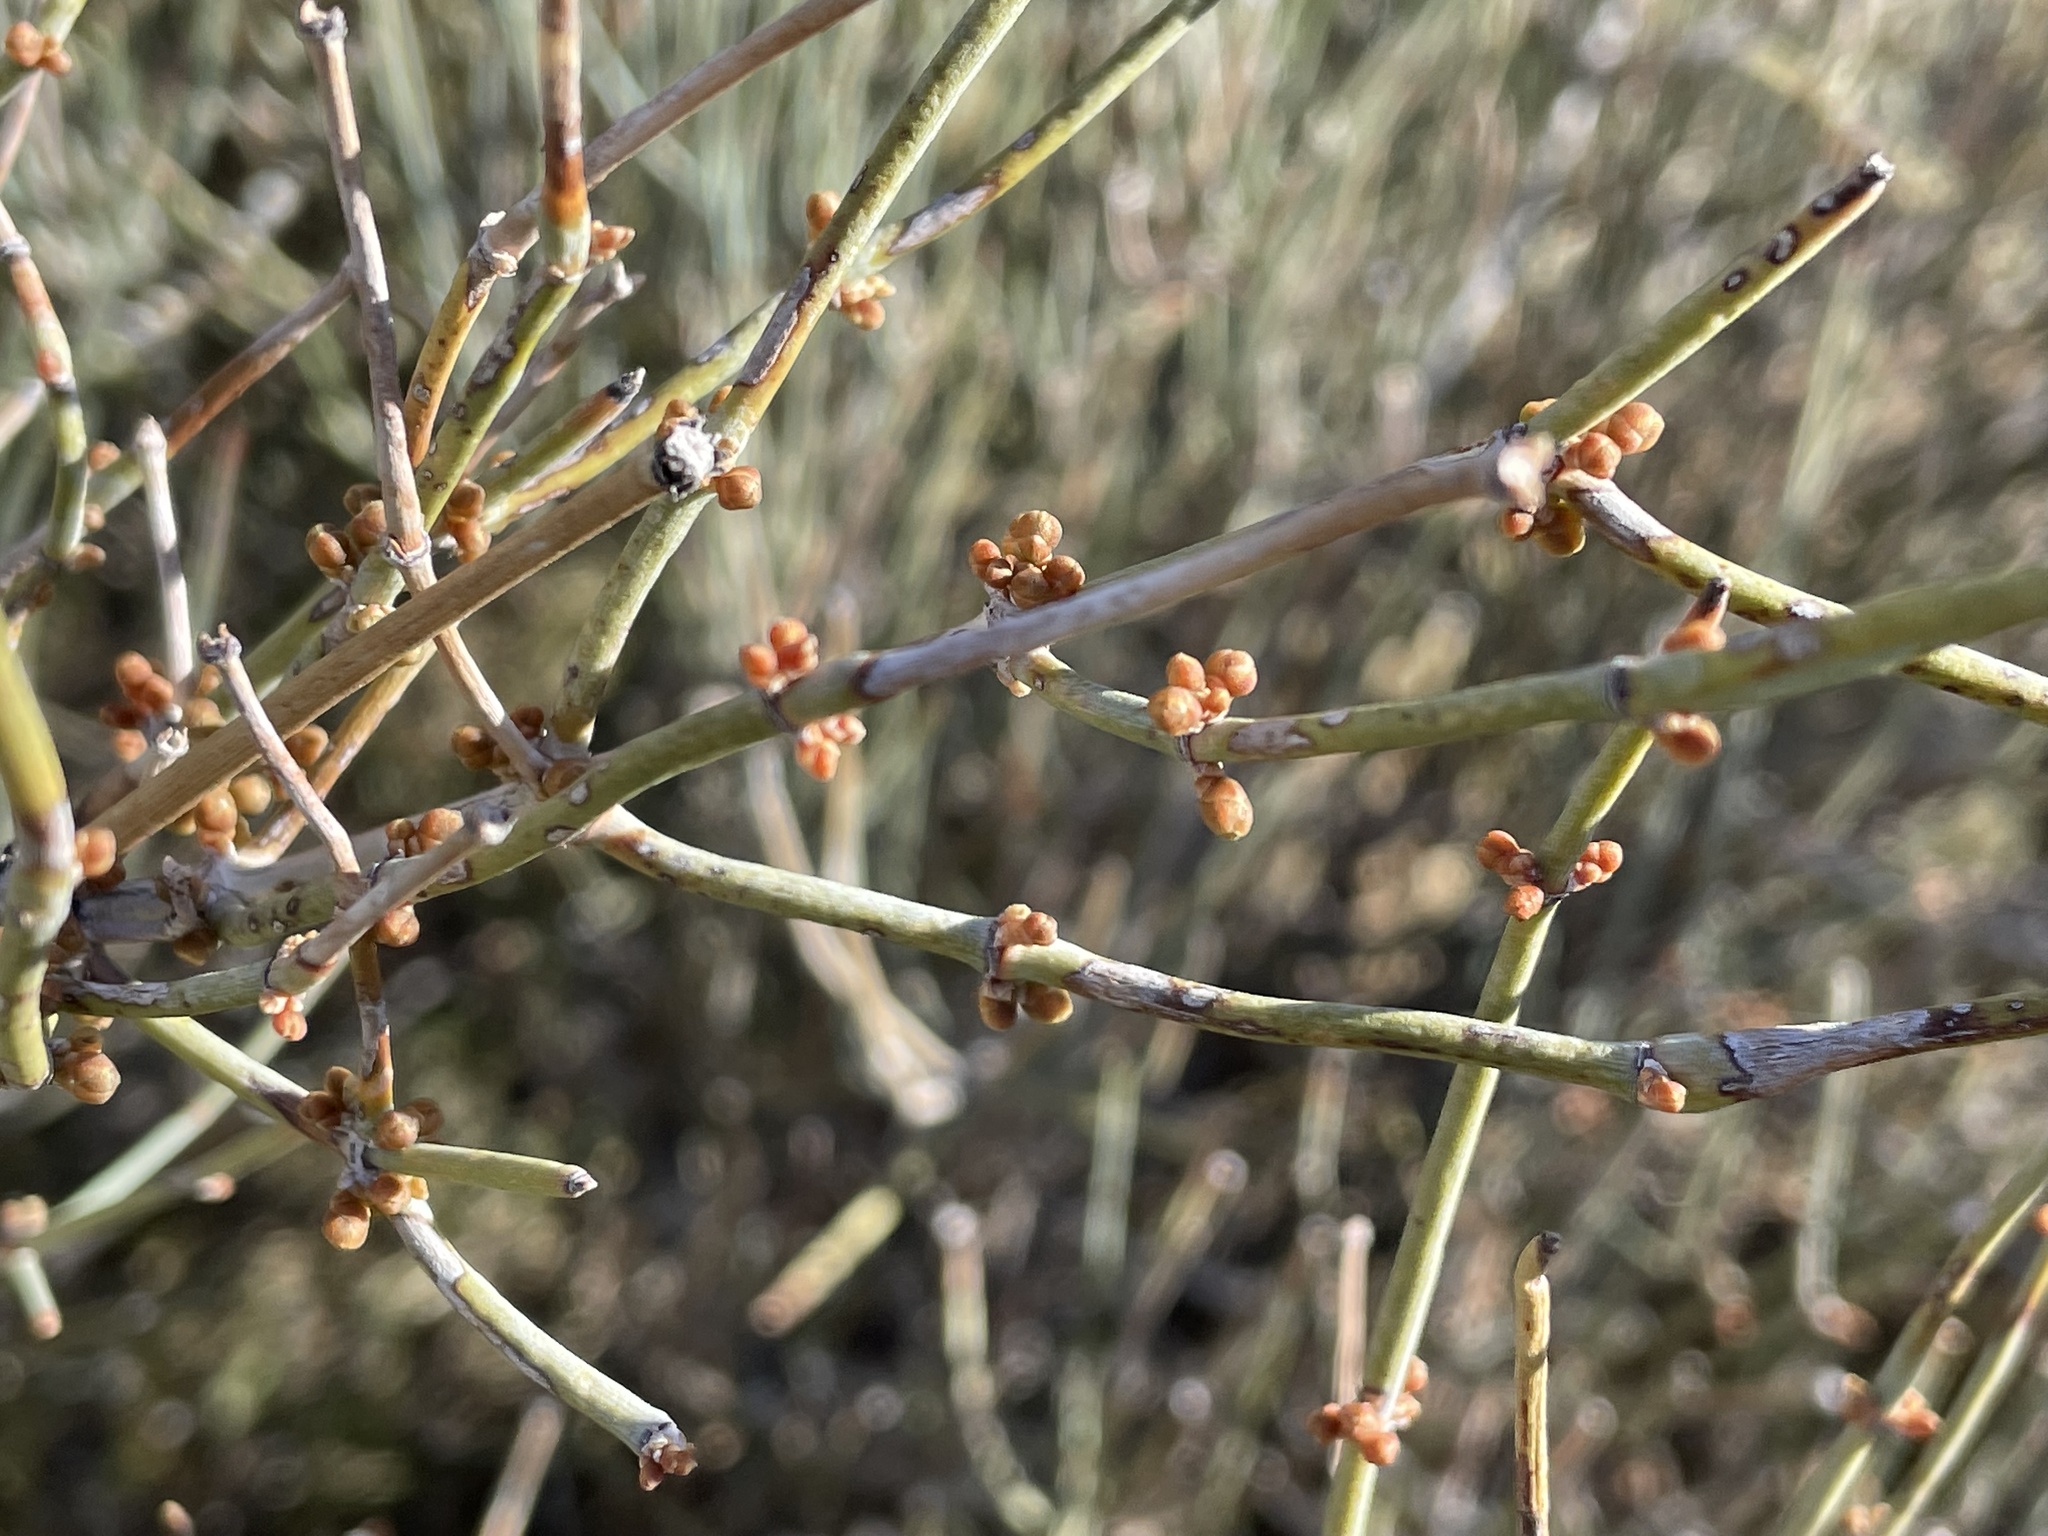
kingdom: Plantae
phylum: Tracheophyta
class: Gnetopsida
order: Ephedrales
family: Ephedraceae
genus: Ephedra
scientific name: Ephedra aspera
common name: Boundary ephedra
